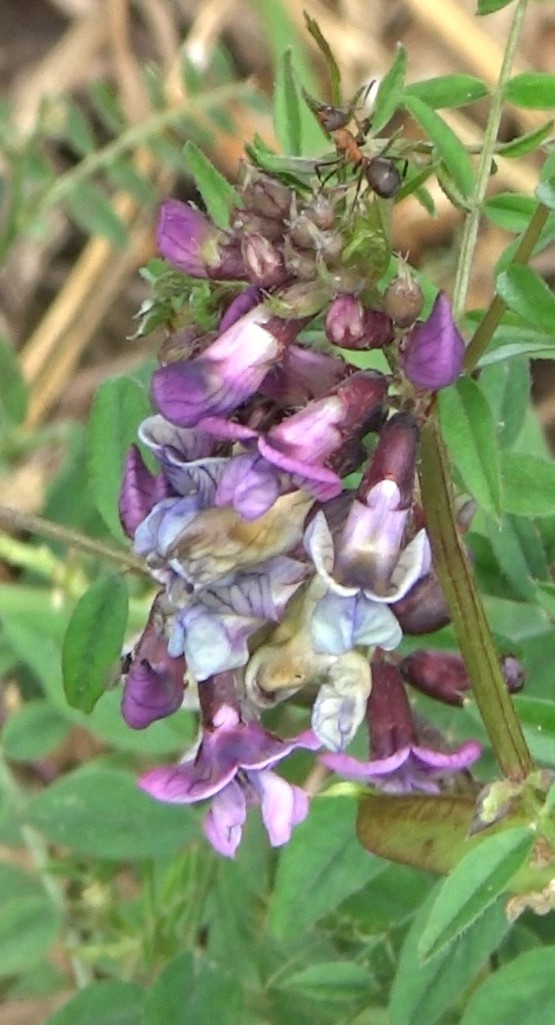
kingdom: Plantae
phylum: Tracheophyta
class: Magnoliopsida
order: Fabales
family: Fabaceae
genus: Vicia
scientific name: Vicia sepium
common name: Bush vetch
